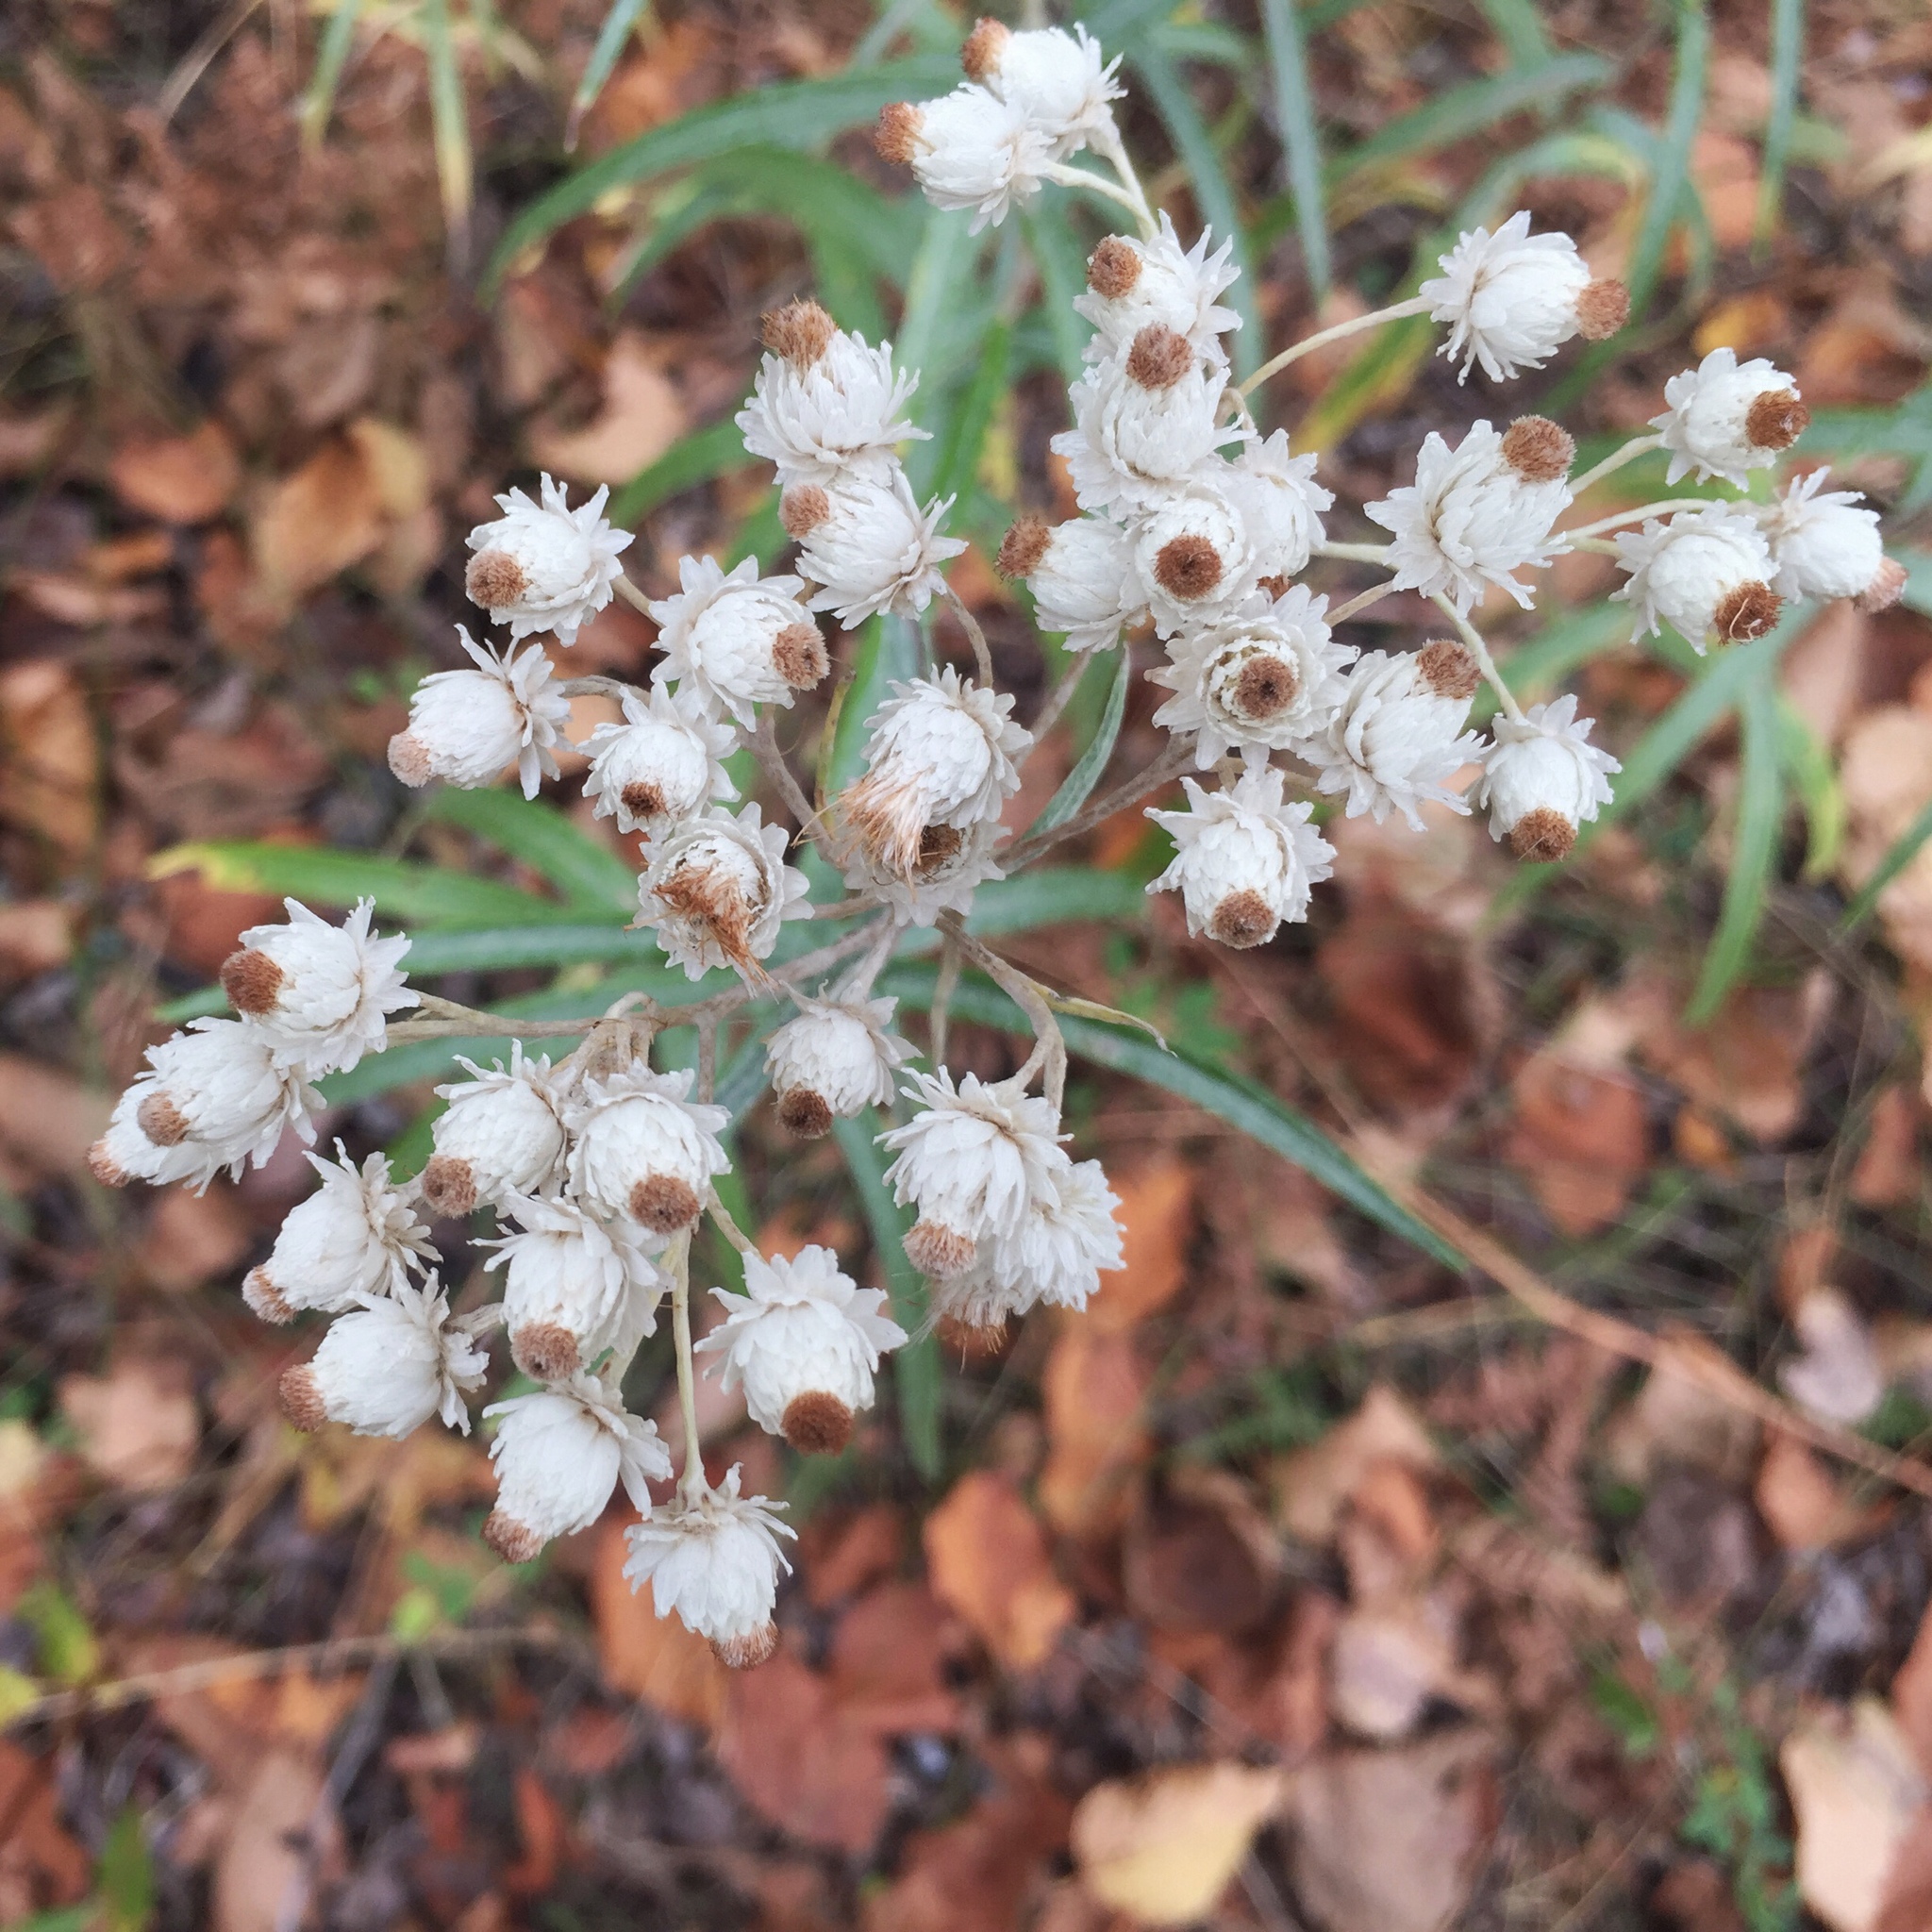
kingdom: Plantae
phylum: Tracheophyta
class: Magnoliopsida
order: Asterales
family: Asteraceae
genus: Anaphalis
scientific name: Anaphalis margaritacea
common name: Pearly everlasting
